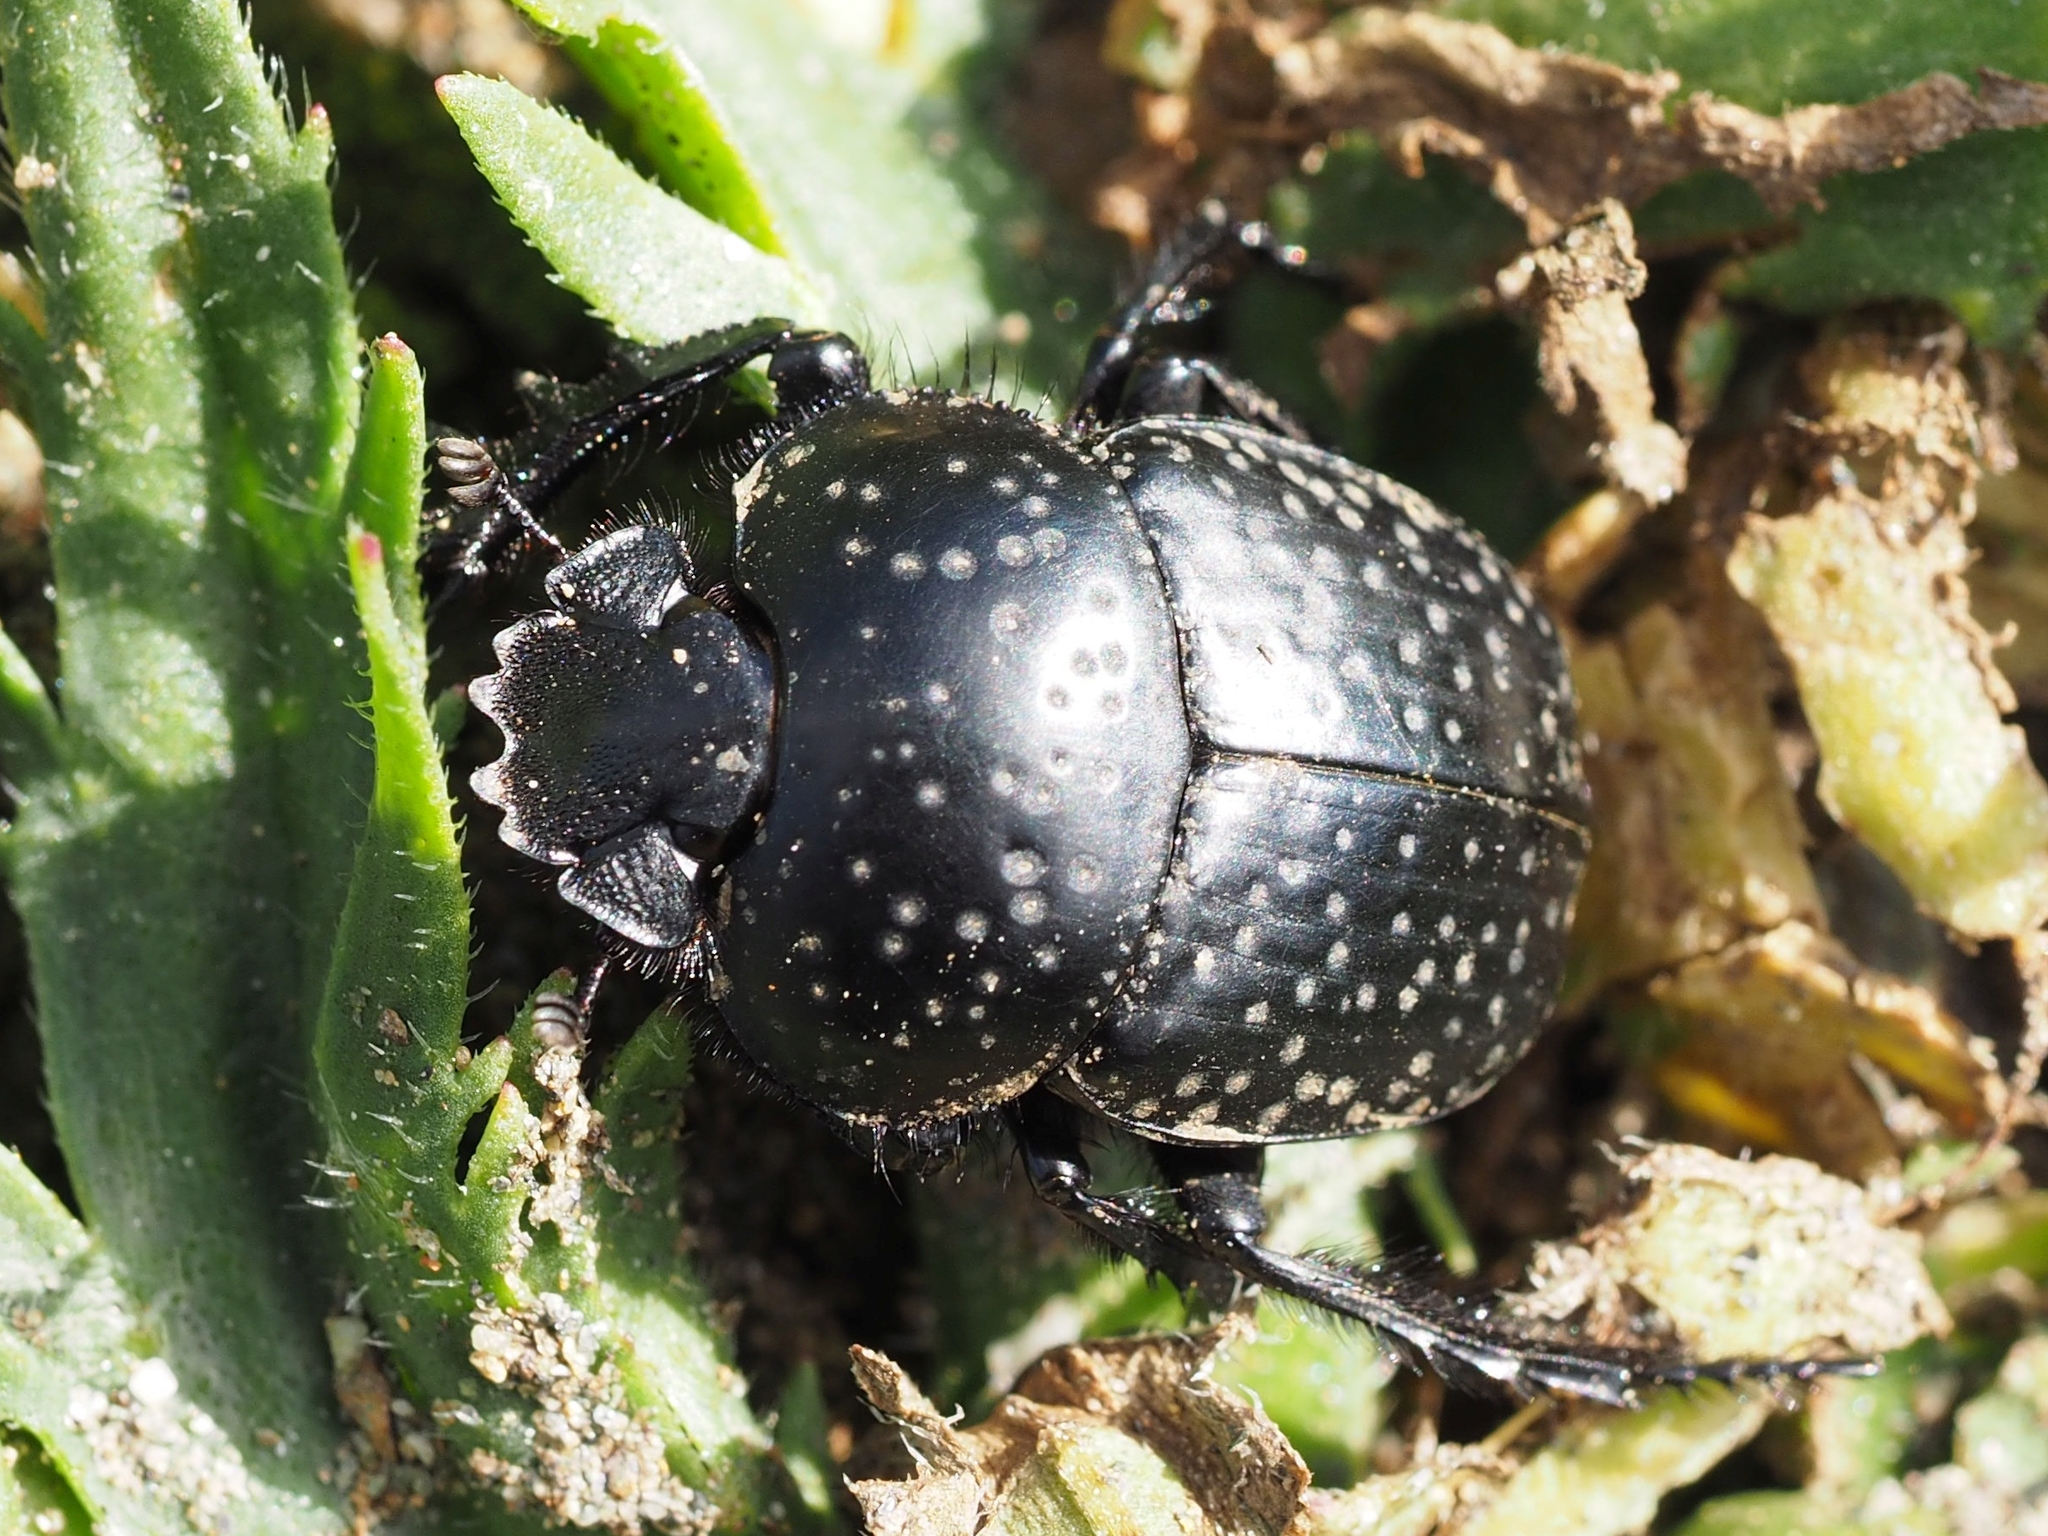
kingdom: Animalia
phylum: Arthropoda
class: Insecta
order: Coleoptera
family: Scarabaeidae
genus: Ateuchetus
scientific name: Ateuchetus
